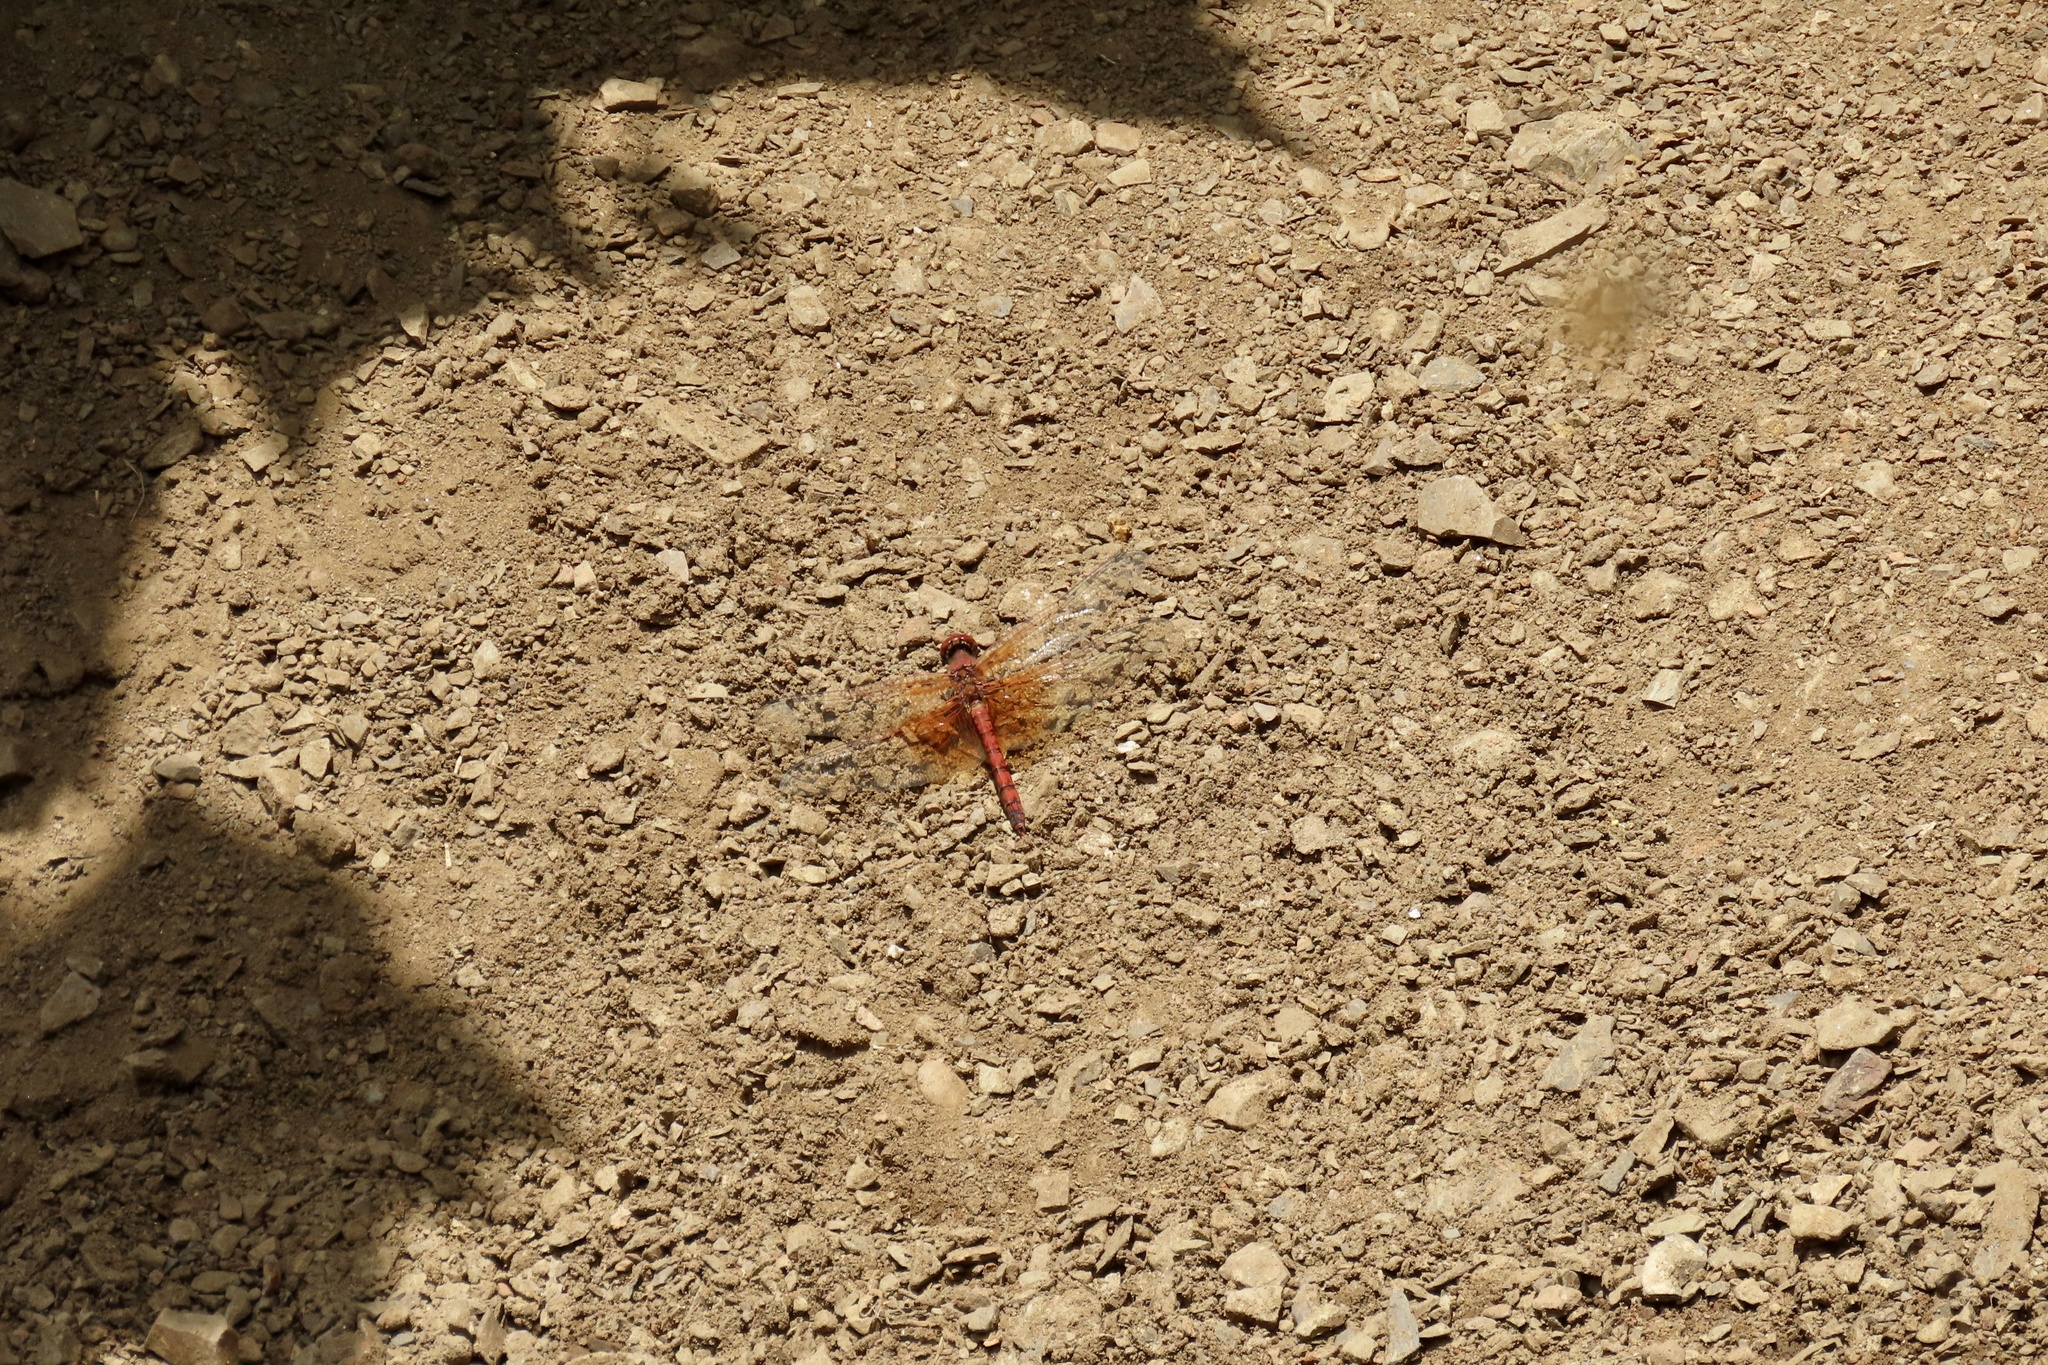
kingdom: Animalia
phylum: Arthropoda
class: Insecta
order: Odonata
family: Libellulidae
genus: Paltothemis
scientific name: Paltothemis lineatipes
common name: Red rock skimmer
